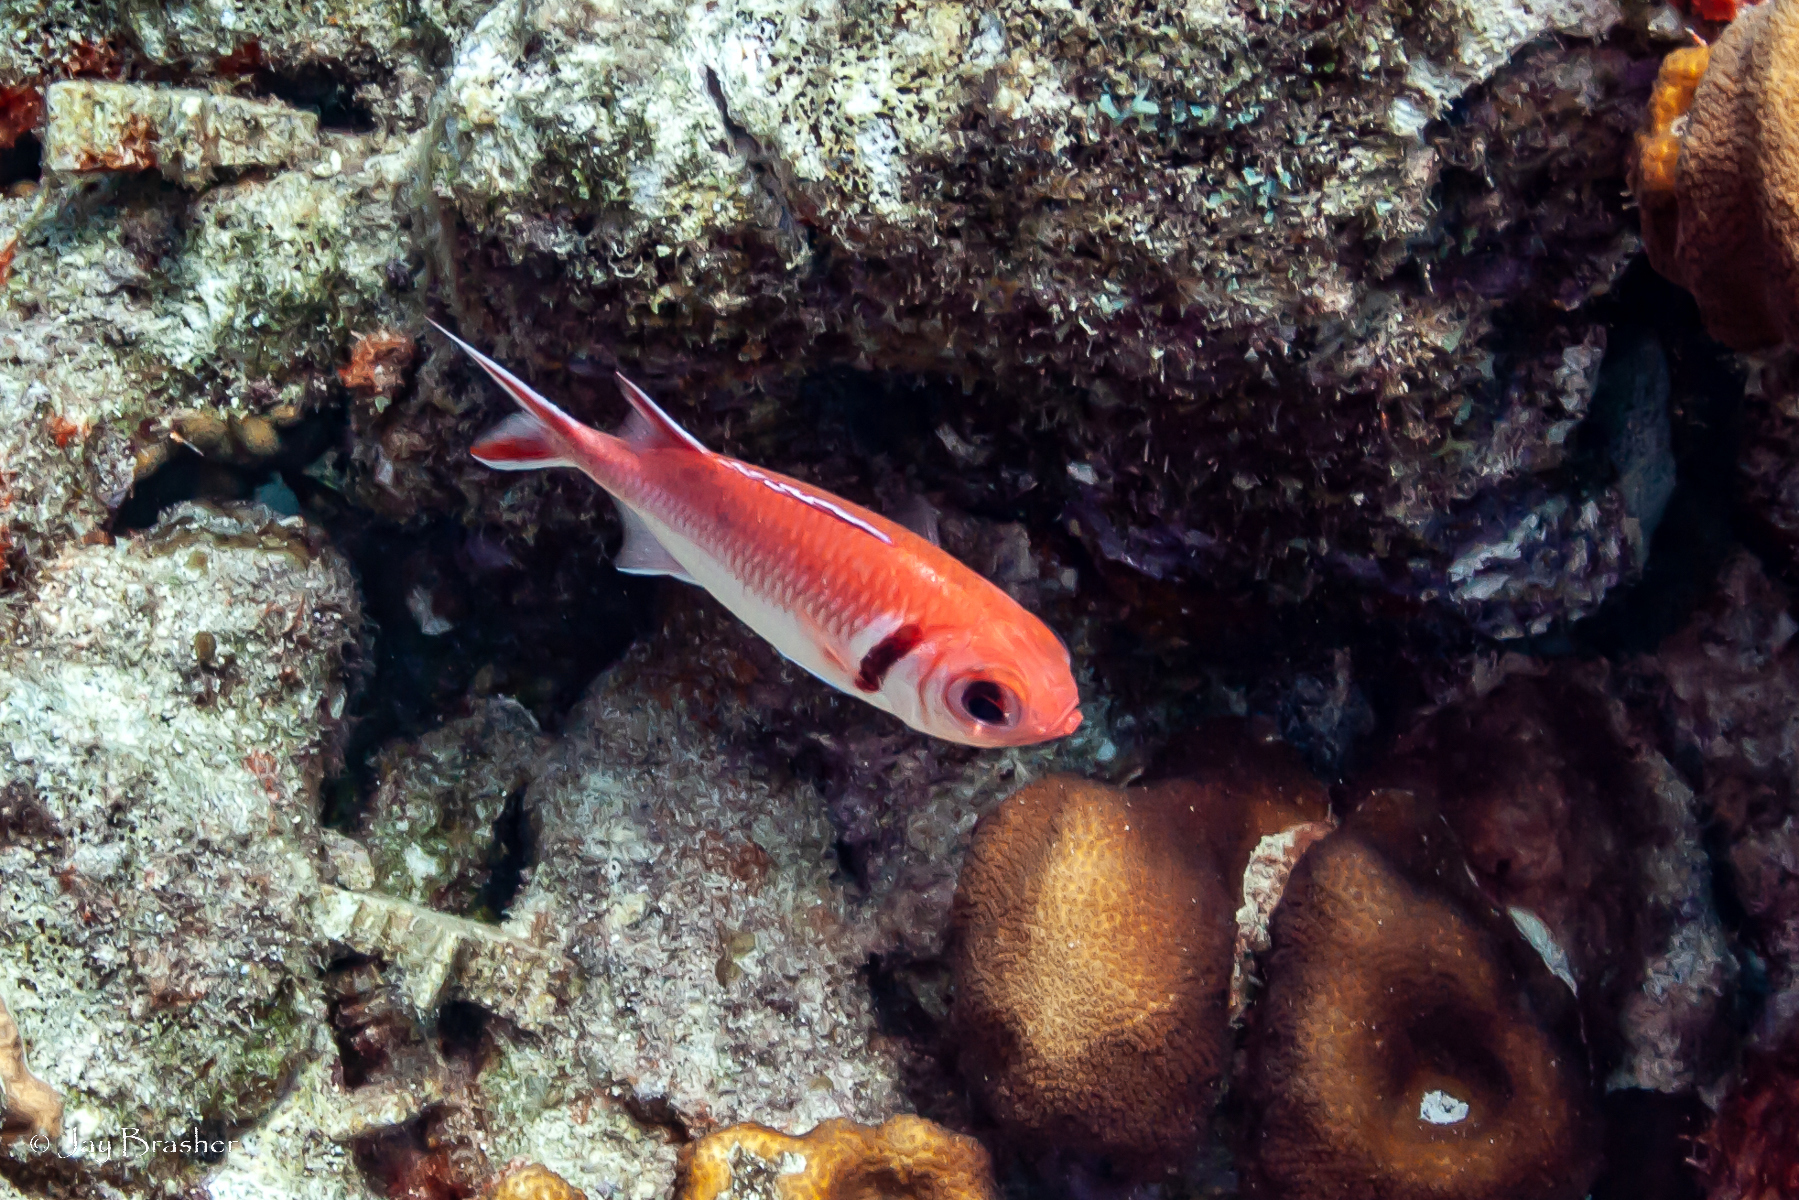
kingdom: Animalia
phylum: Chordata
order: Beryciformes
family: Holocentridae
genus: Myripristis
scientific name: Myripristis jacobus
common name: Blackbar soldierfish
